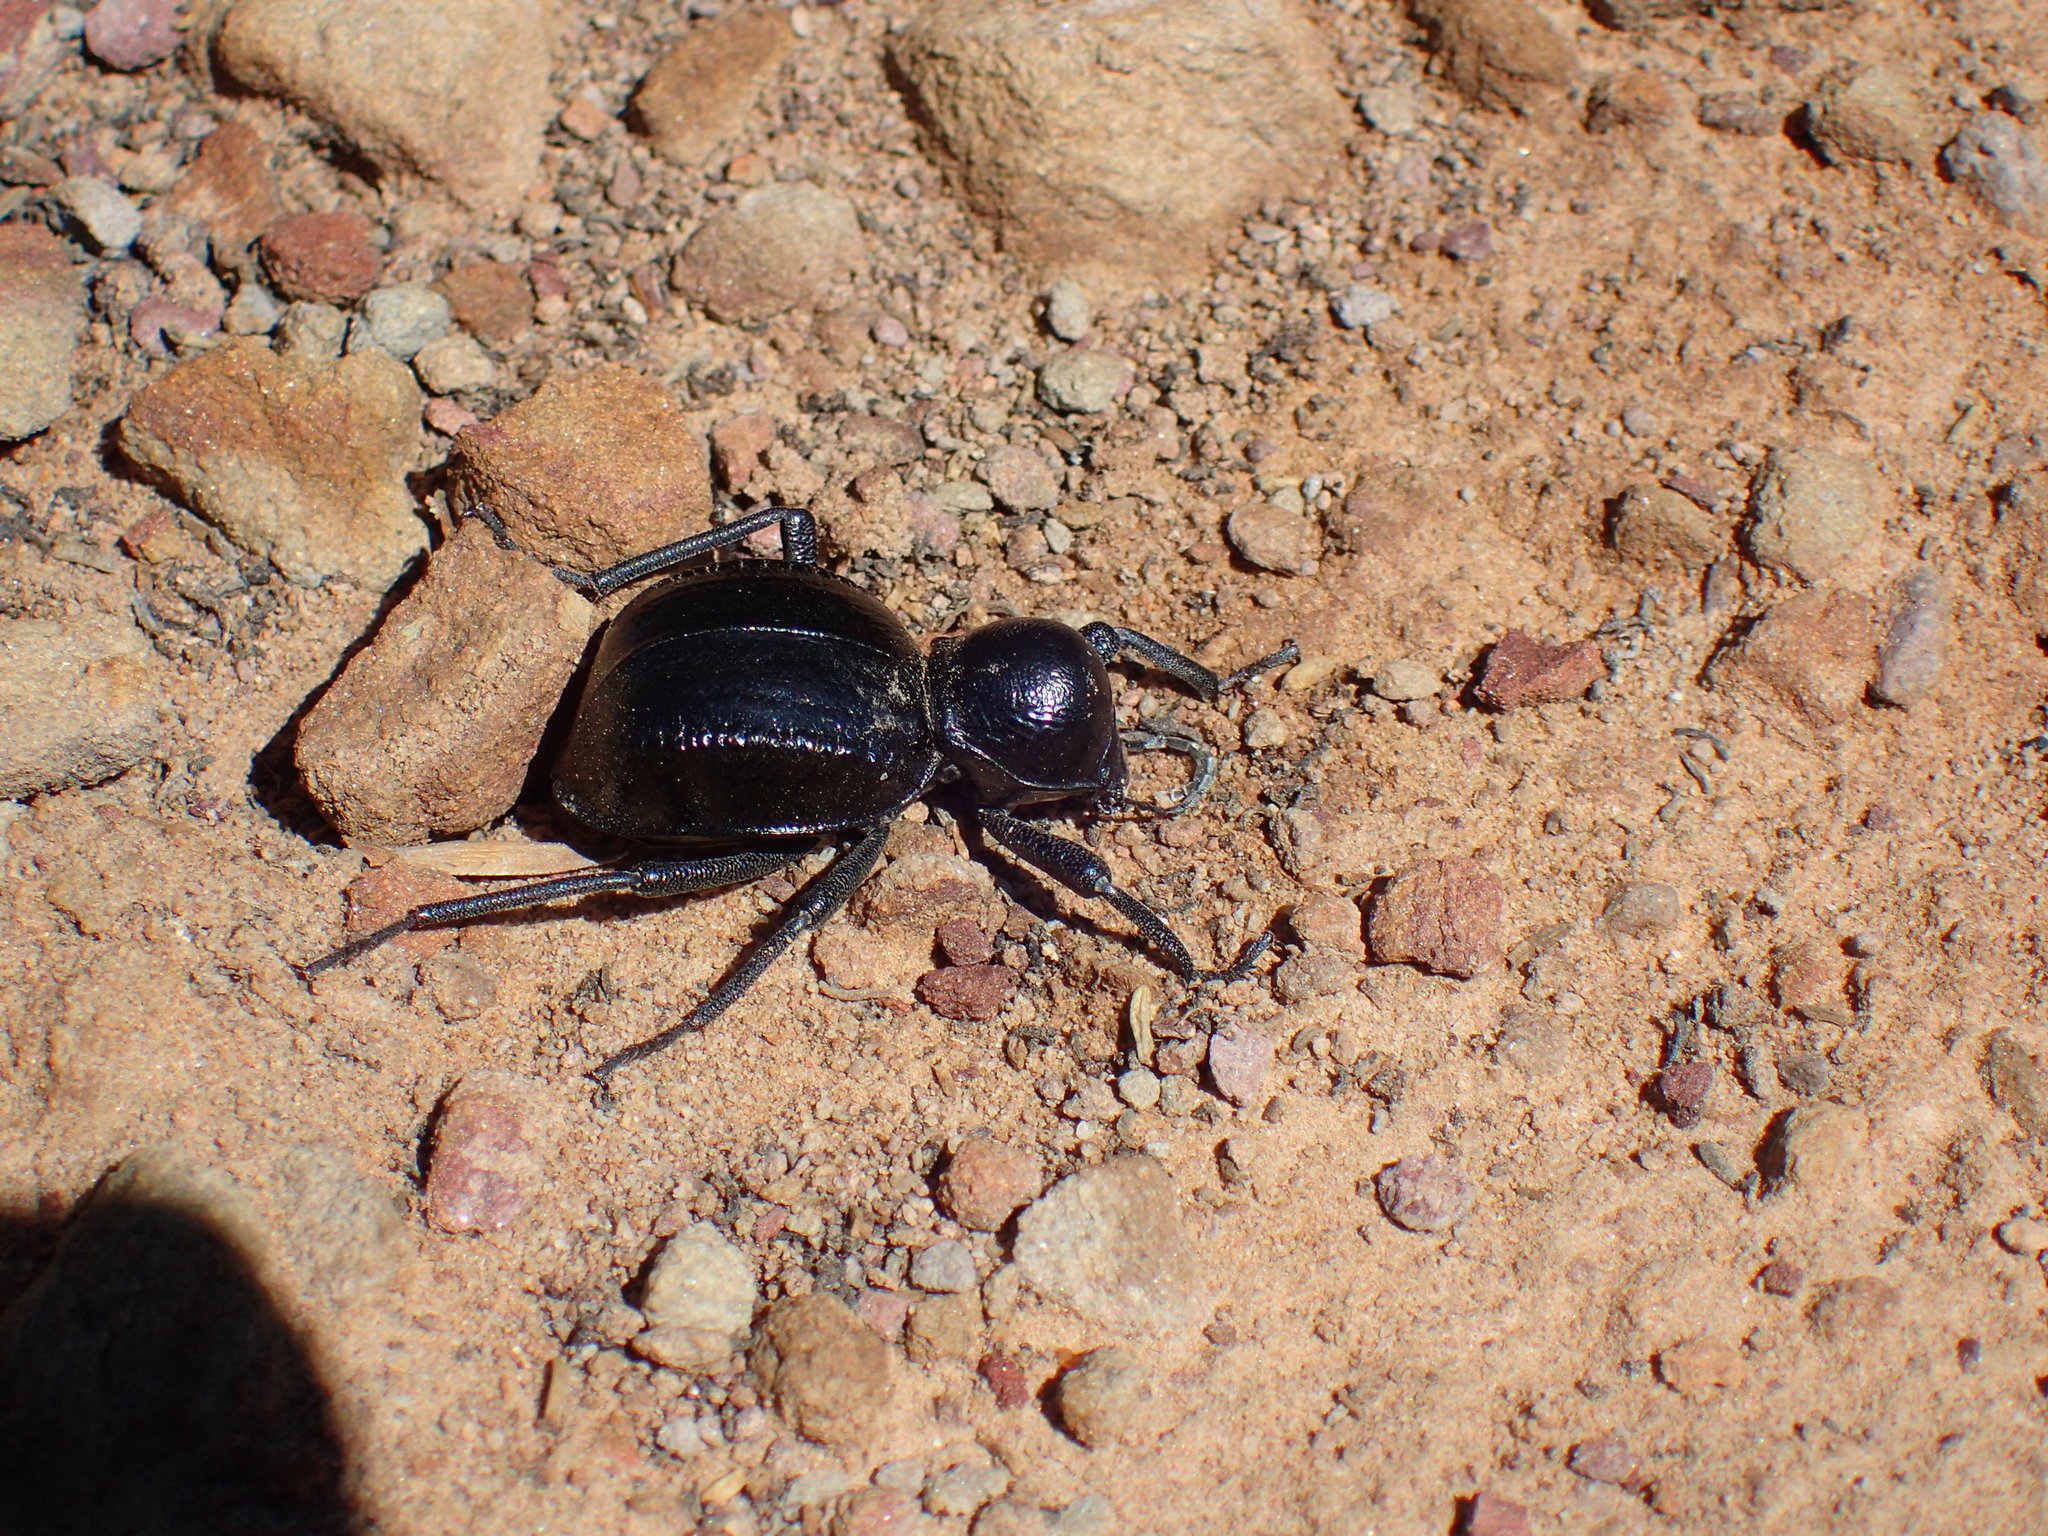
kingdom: Animalia
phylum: Arthropoda
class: Insecta
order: Coleoptera
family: Tenebrionidae
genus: Moluris
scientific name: Moluris gibba
